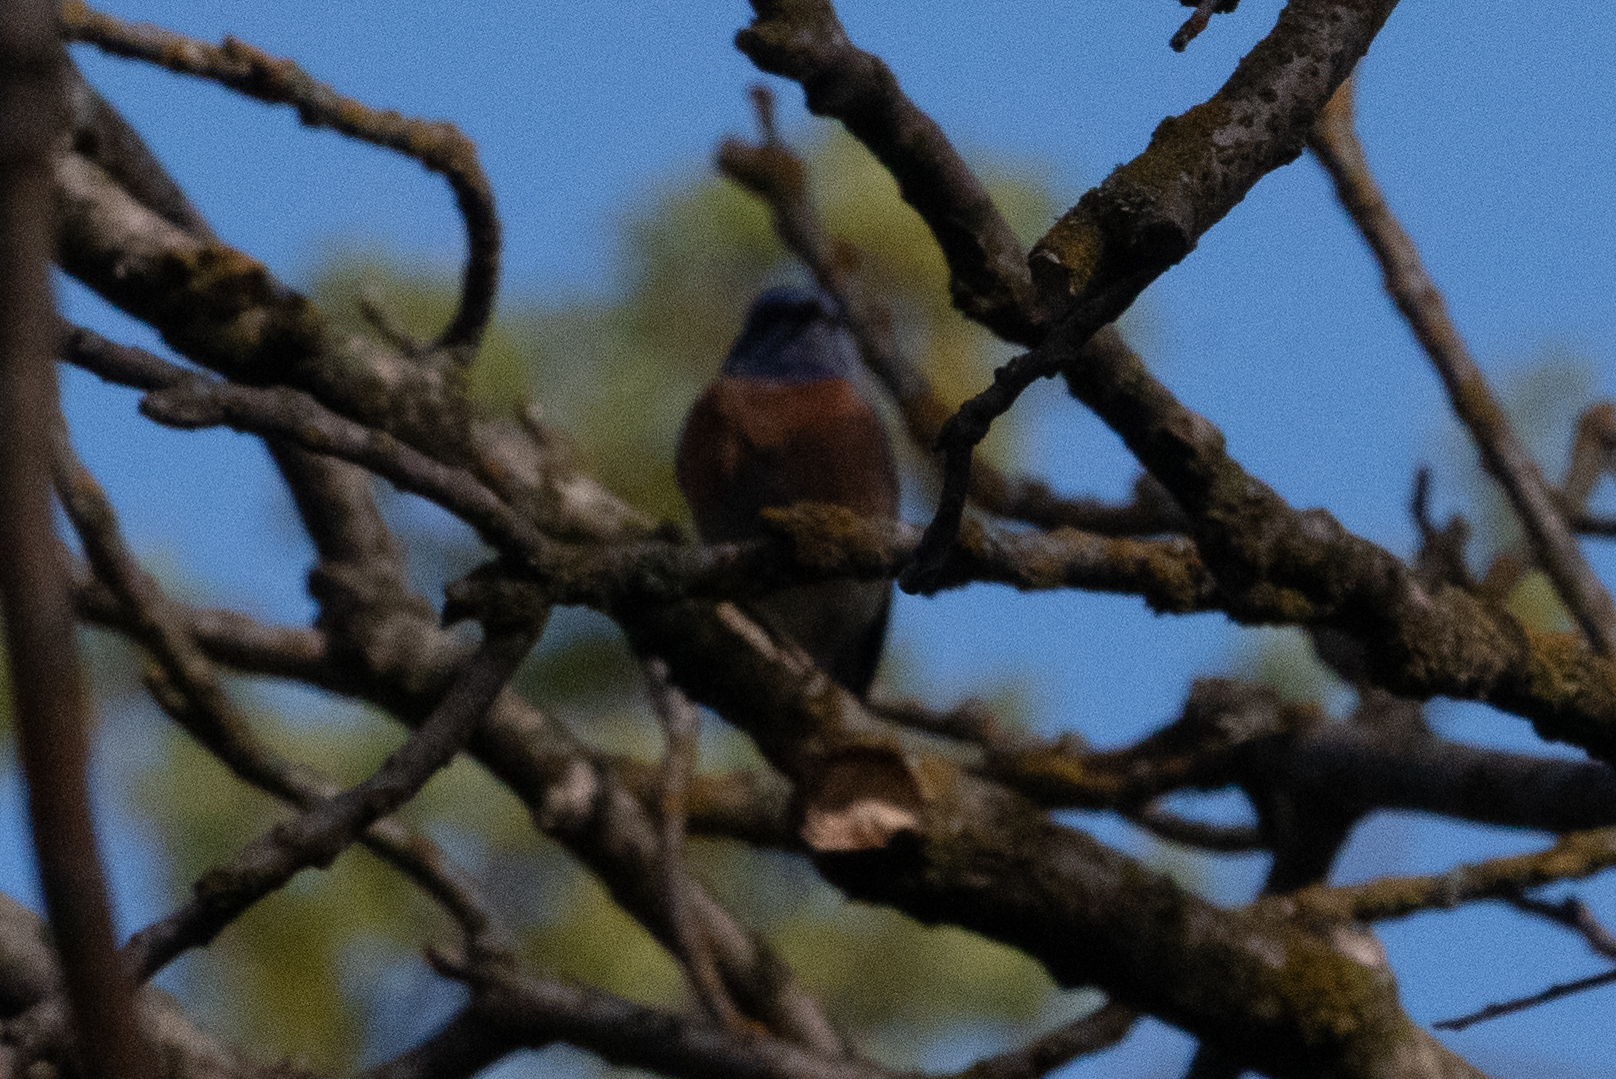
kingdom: Animalia
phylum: Chordata
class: Aves
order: Passeriformes
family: Turdidae
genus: Sialia
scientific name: Sialia mexicana
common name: Western bluebird
